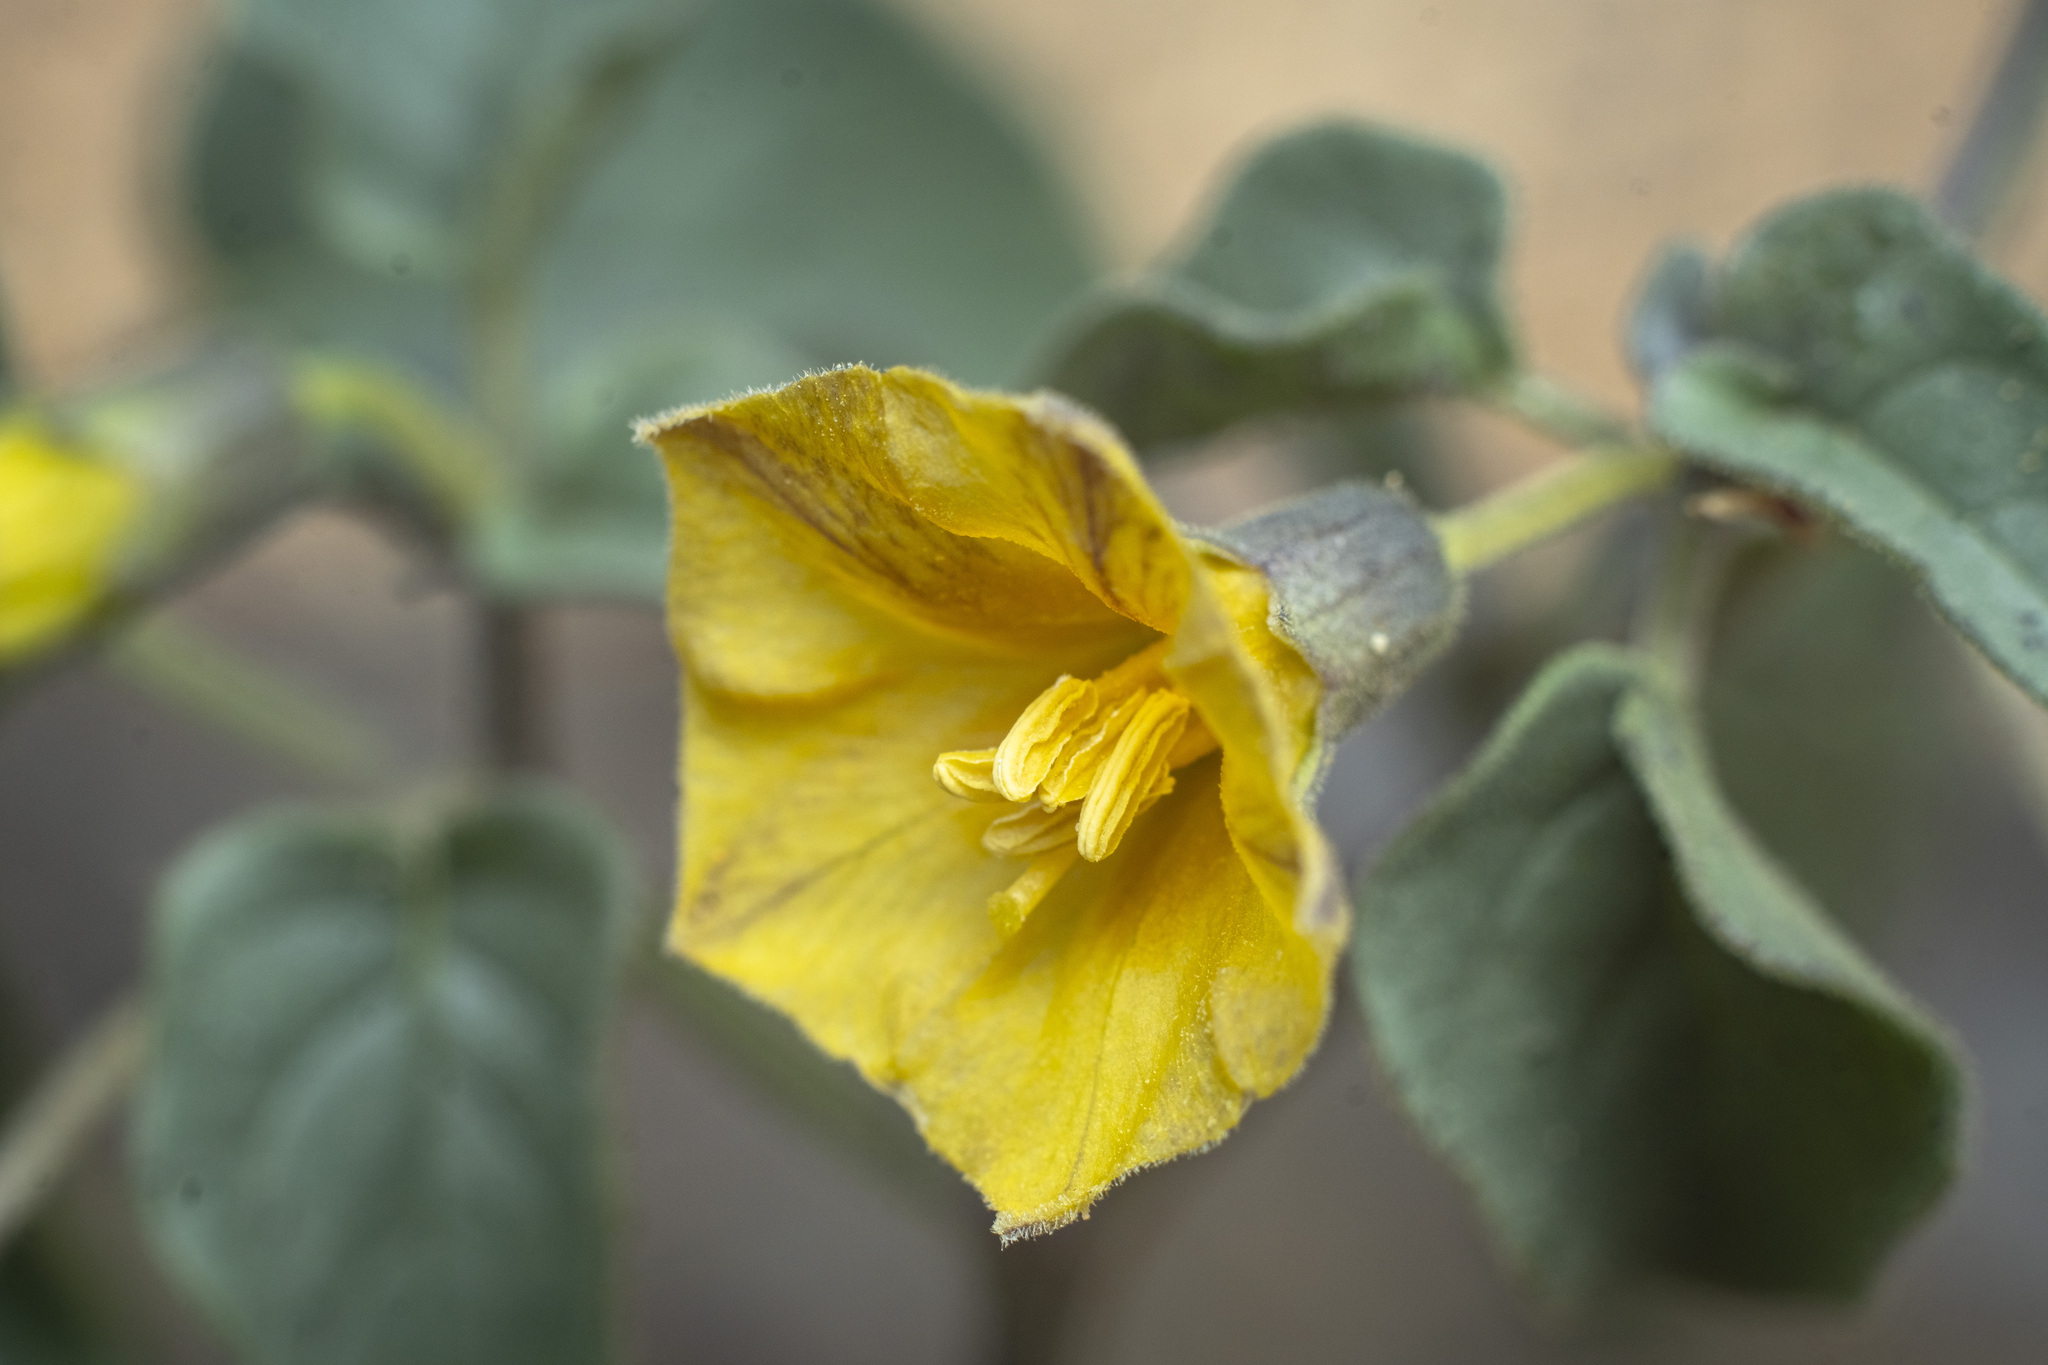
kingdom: Plantae
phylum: Tracheophyta
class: Magnoliopsida
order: Solanales
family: Solanaceae
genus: Physalis
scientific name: Physalis crassifolia
